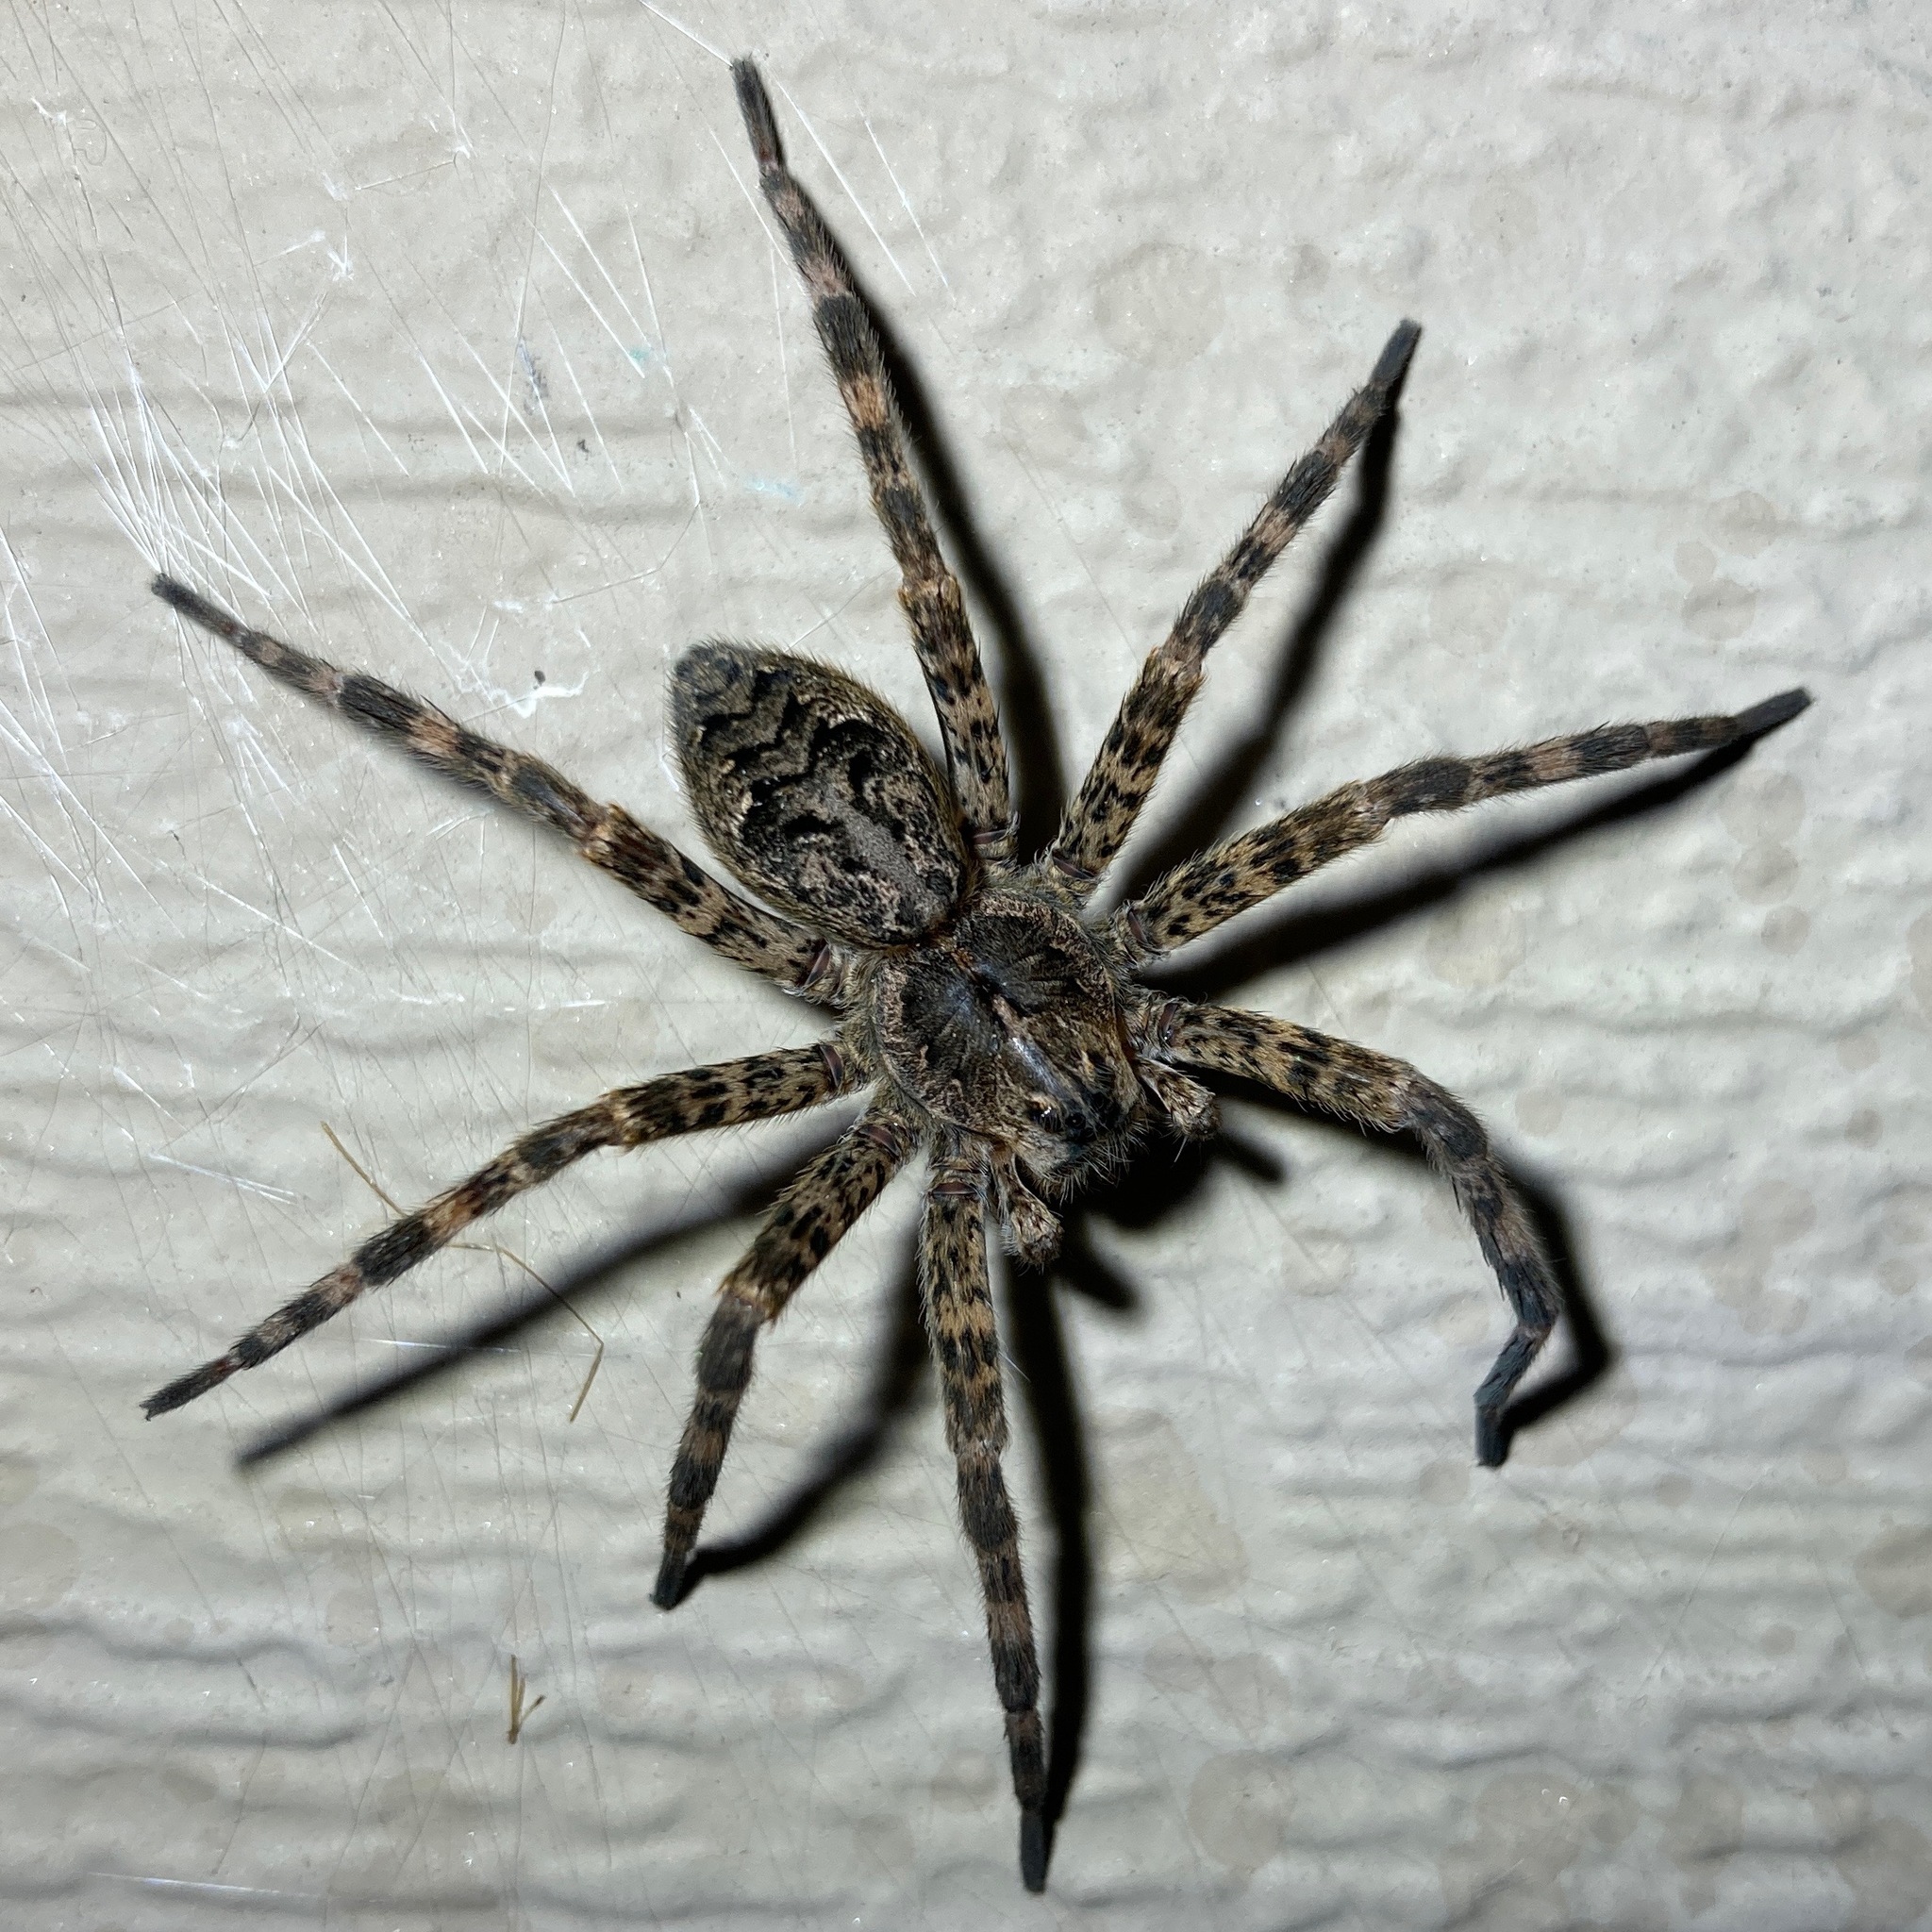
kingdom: Animalia
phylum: Arthropoda
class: Arachnida
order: Araneae
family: Pisauridae
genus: Dolomedes
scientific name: Dolomedes tenebrosus
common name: Dark fishing spider
